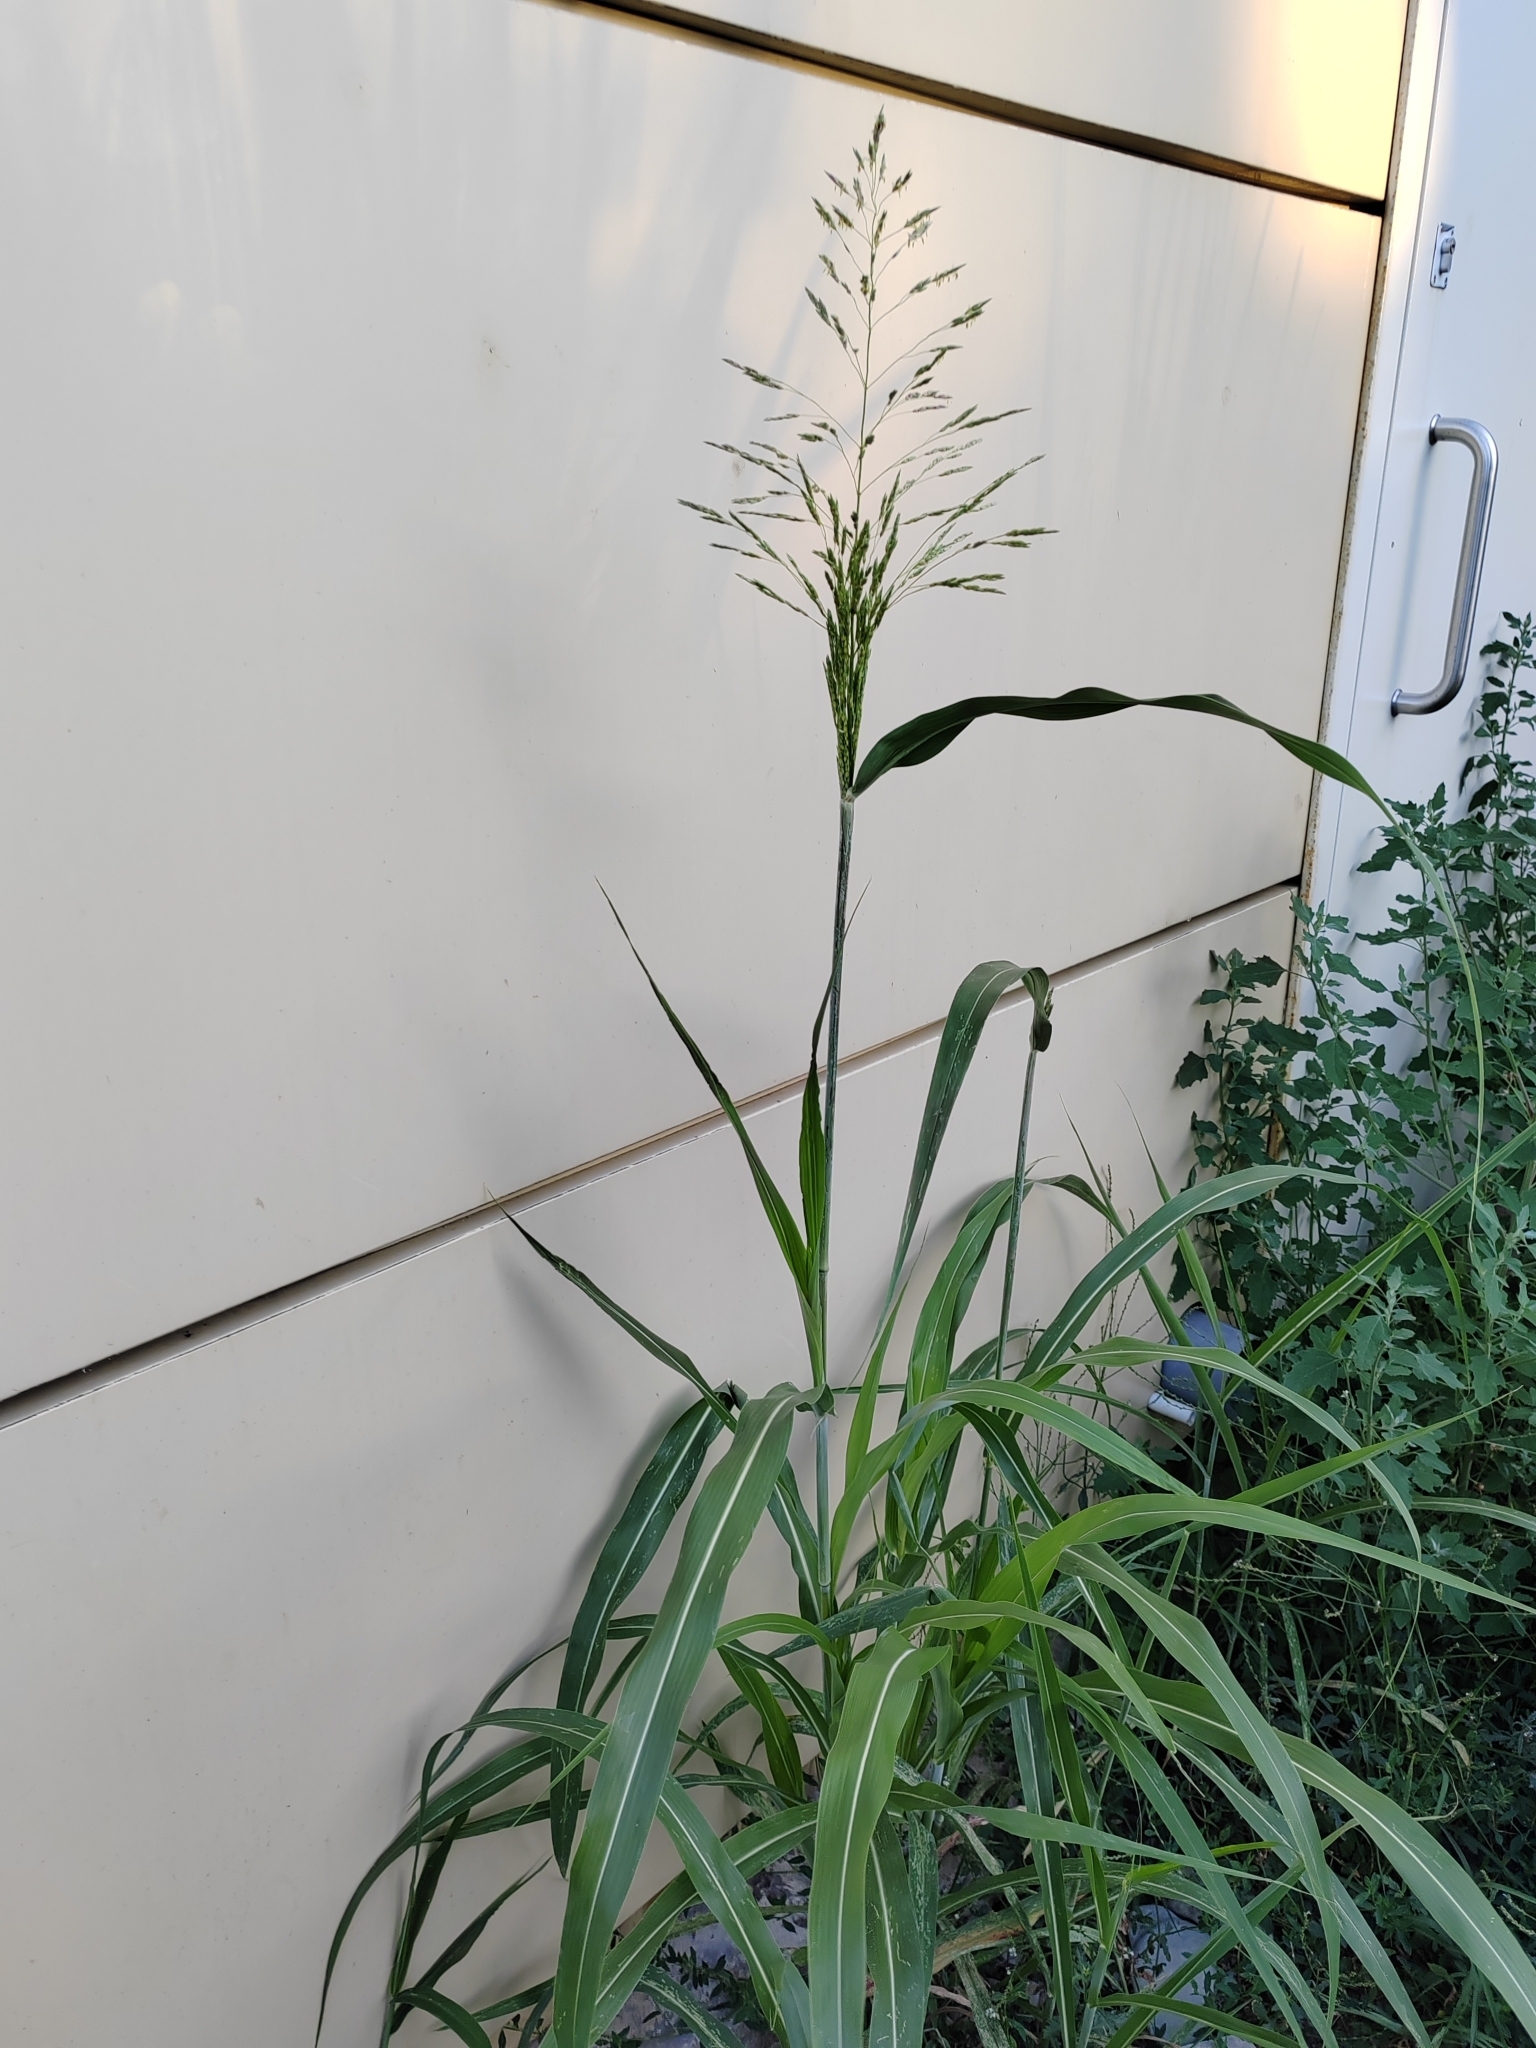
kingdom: Plantae
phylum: Tracheophyta
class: Liliopsida
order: Poales
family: Poaceae
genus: Sorghum
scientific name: Sorghum halepense
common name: Johnson-grass
